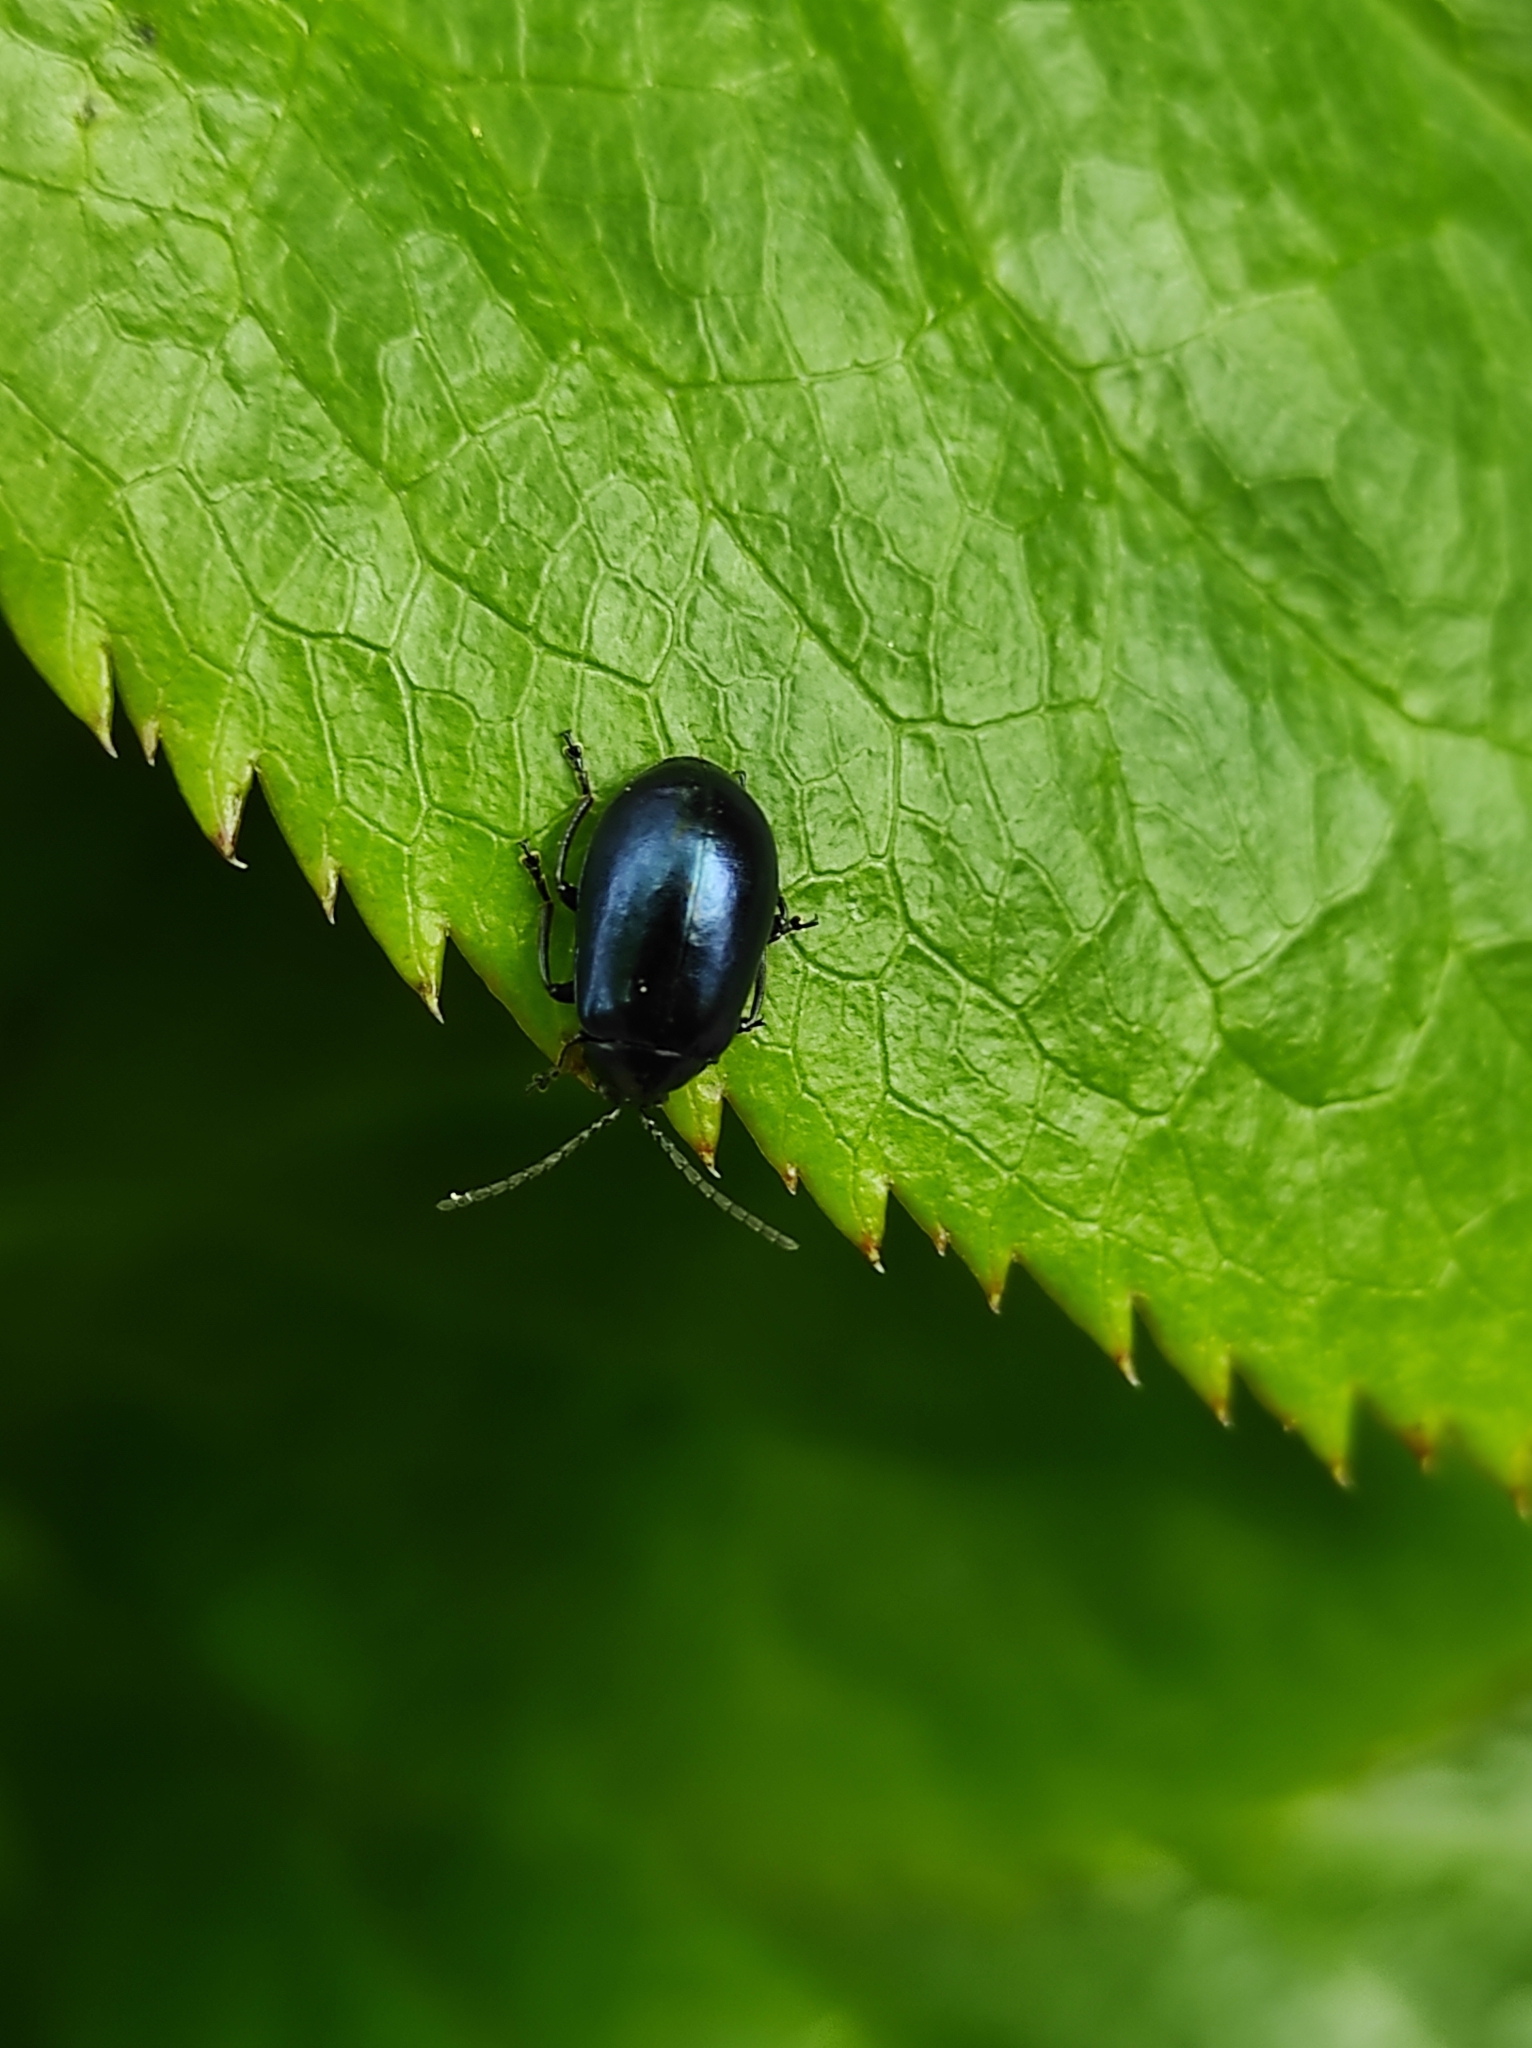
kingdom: Animalia
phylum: Arthropoda
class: Insecta
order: Coleoptera
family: Chrysomelidae
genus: Agelastica
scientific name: Agelastica alni
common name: Alder leaf beetle
